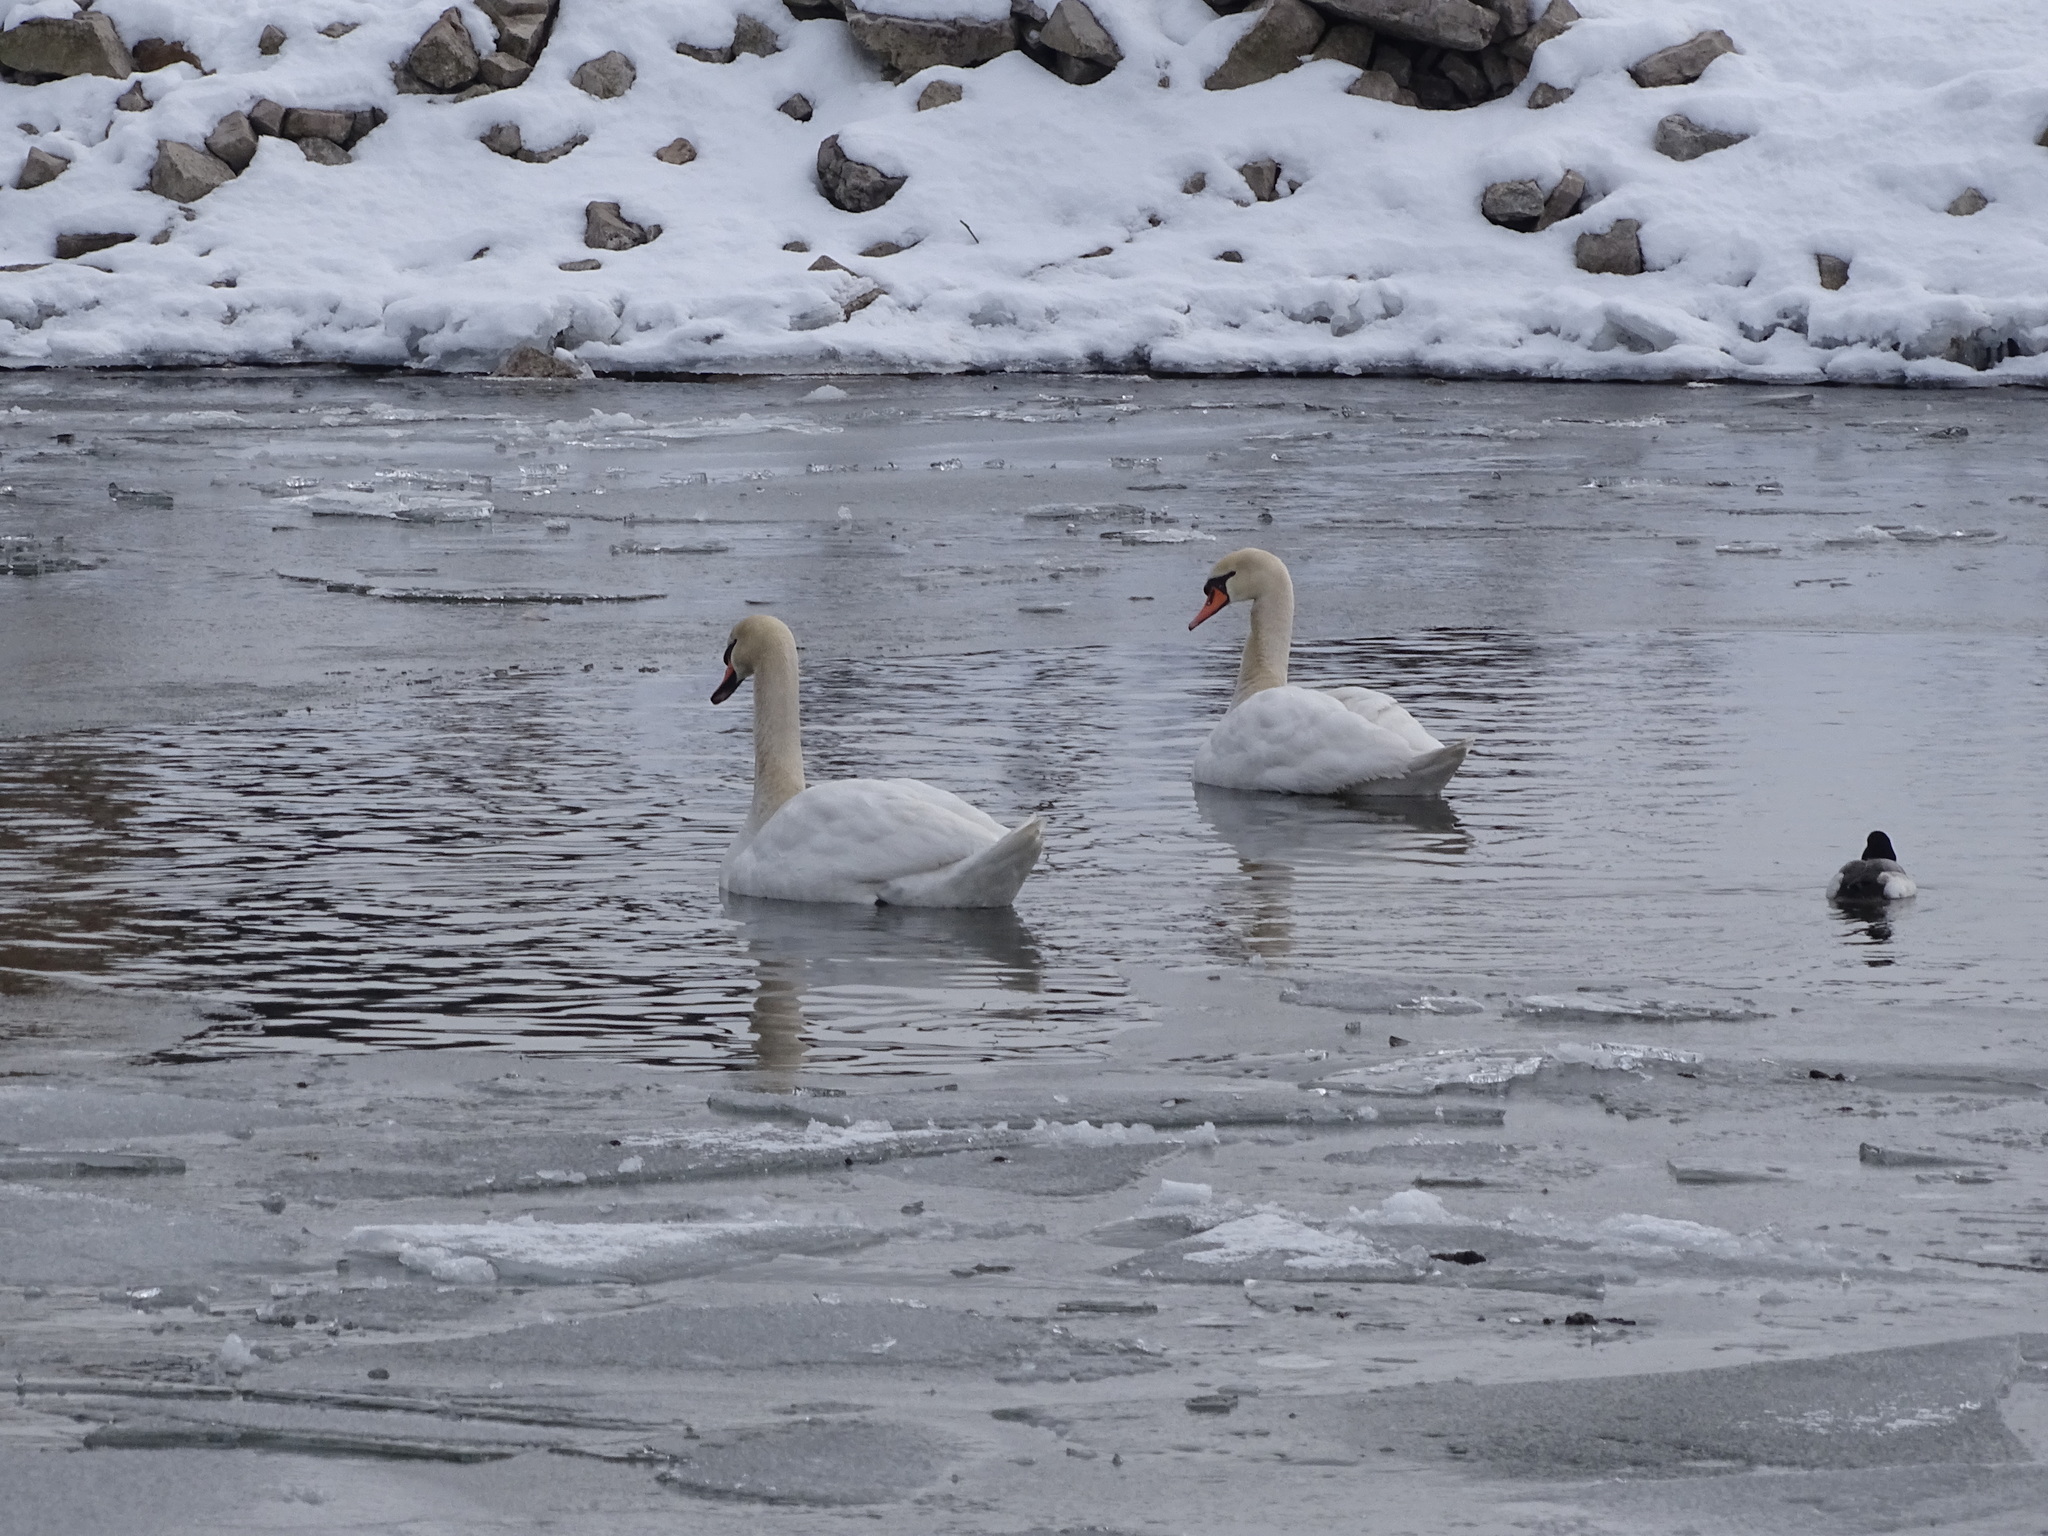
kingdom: Animalia
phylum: Chordata
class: Aves
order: Anseriformes
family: Anatidae
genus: Cygnus
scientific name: Cygnus olor
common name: Mute swan
